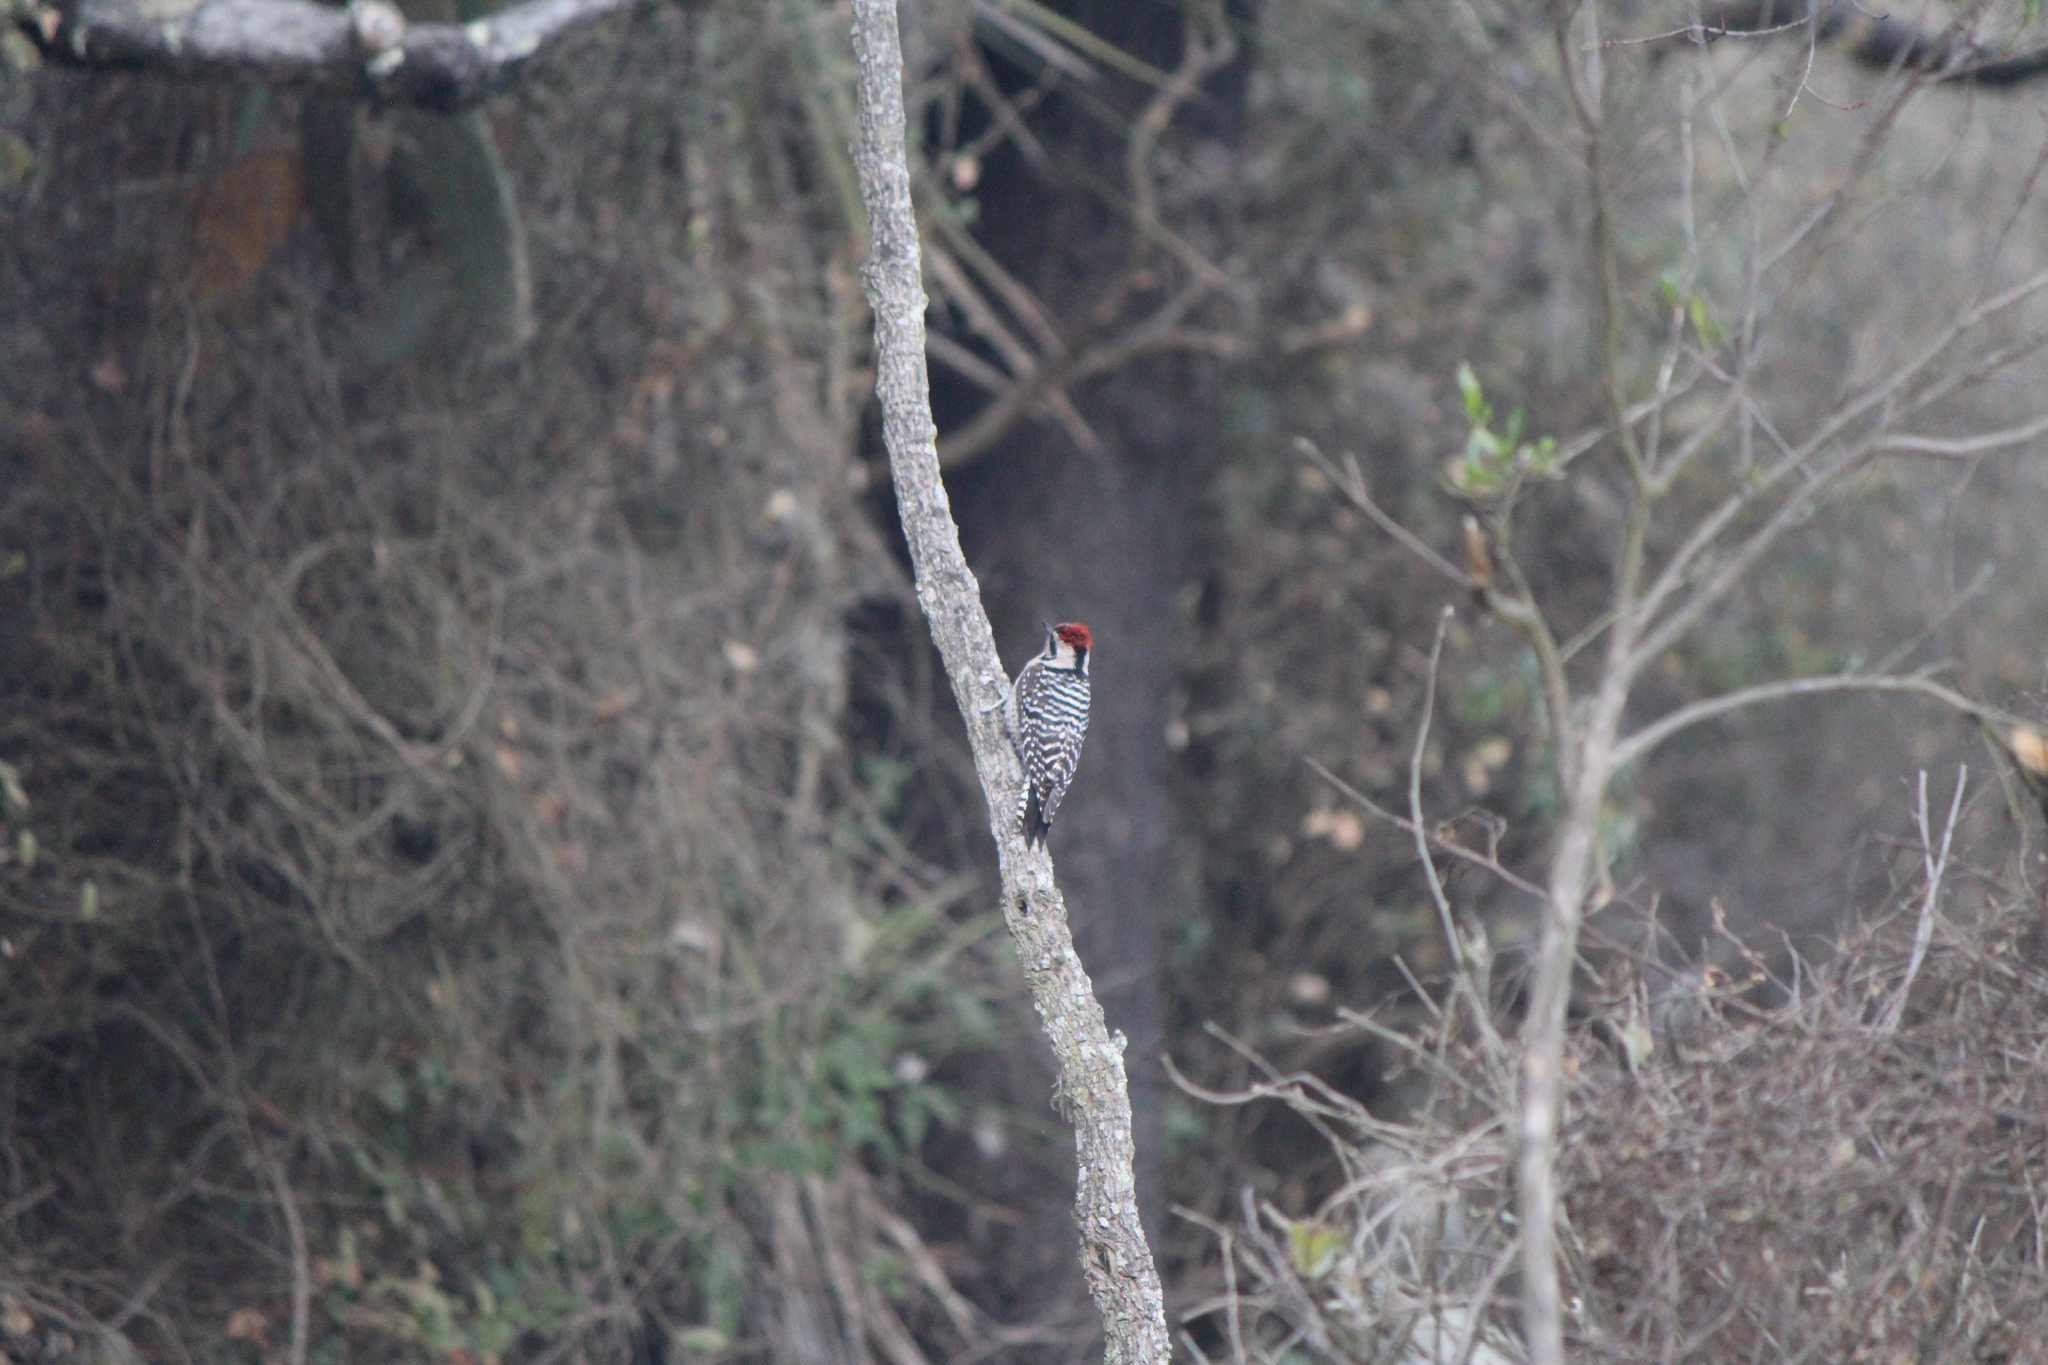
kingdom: Animalia
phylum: Chordata
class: Aves
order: Piciformes
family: Picidae
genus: Dryobates
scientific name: Dryobates scalaris
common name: Ladder-backed woodpecker
